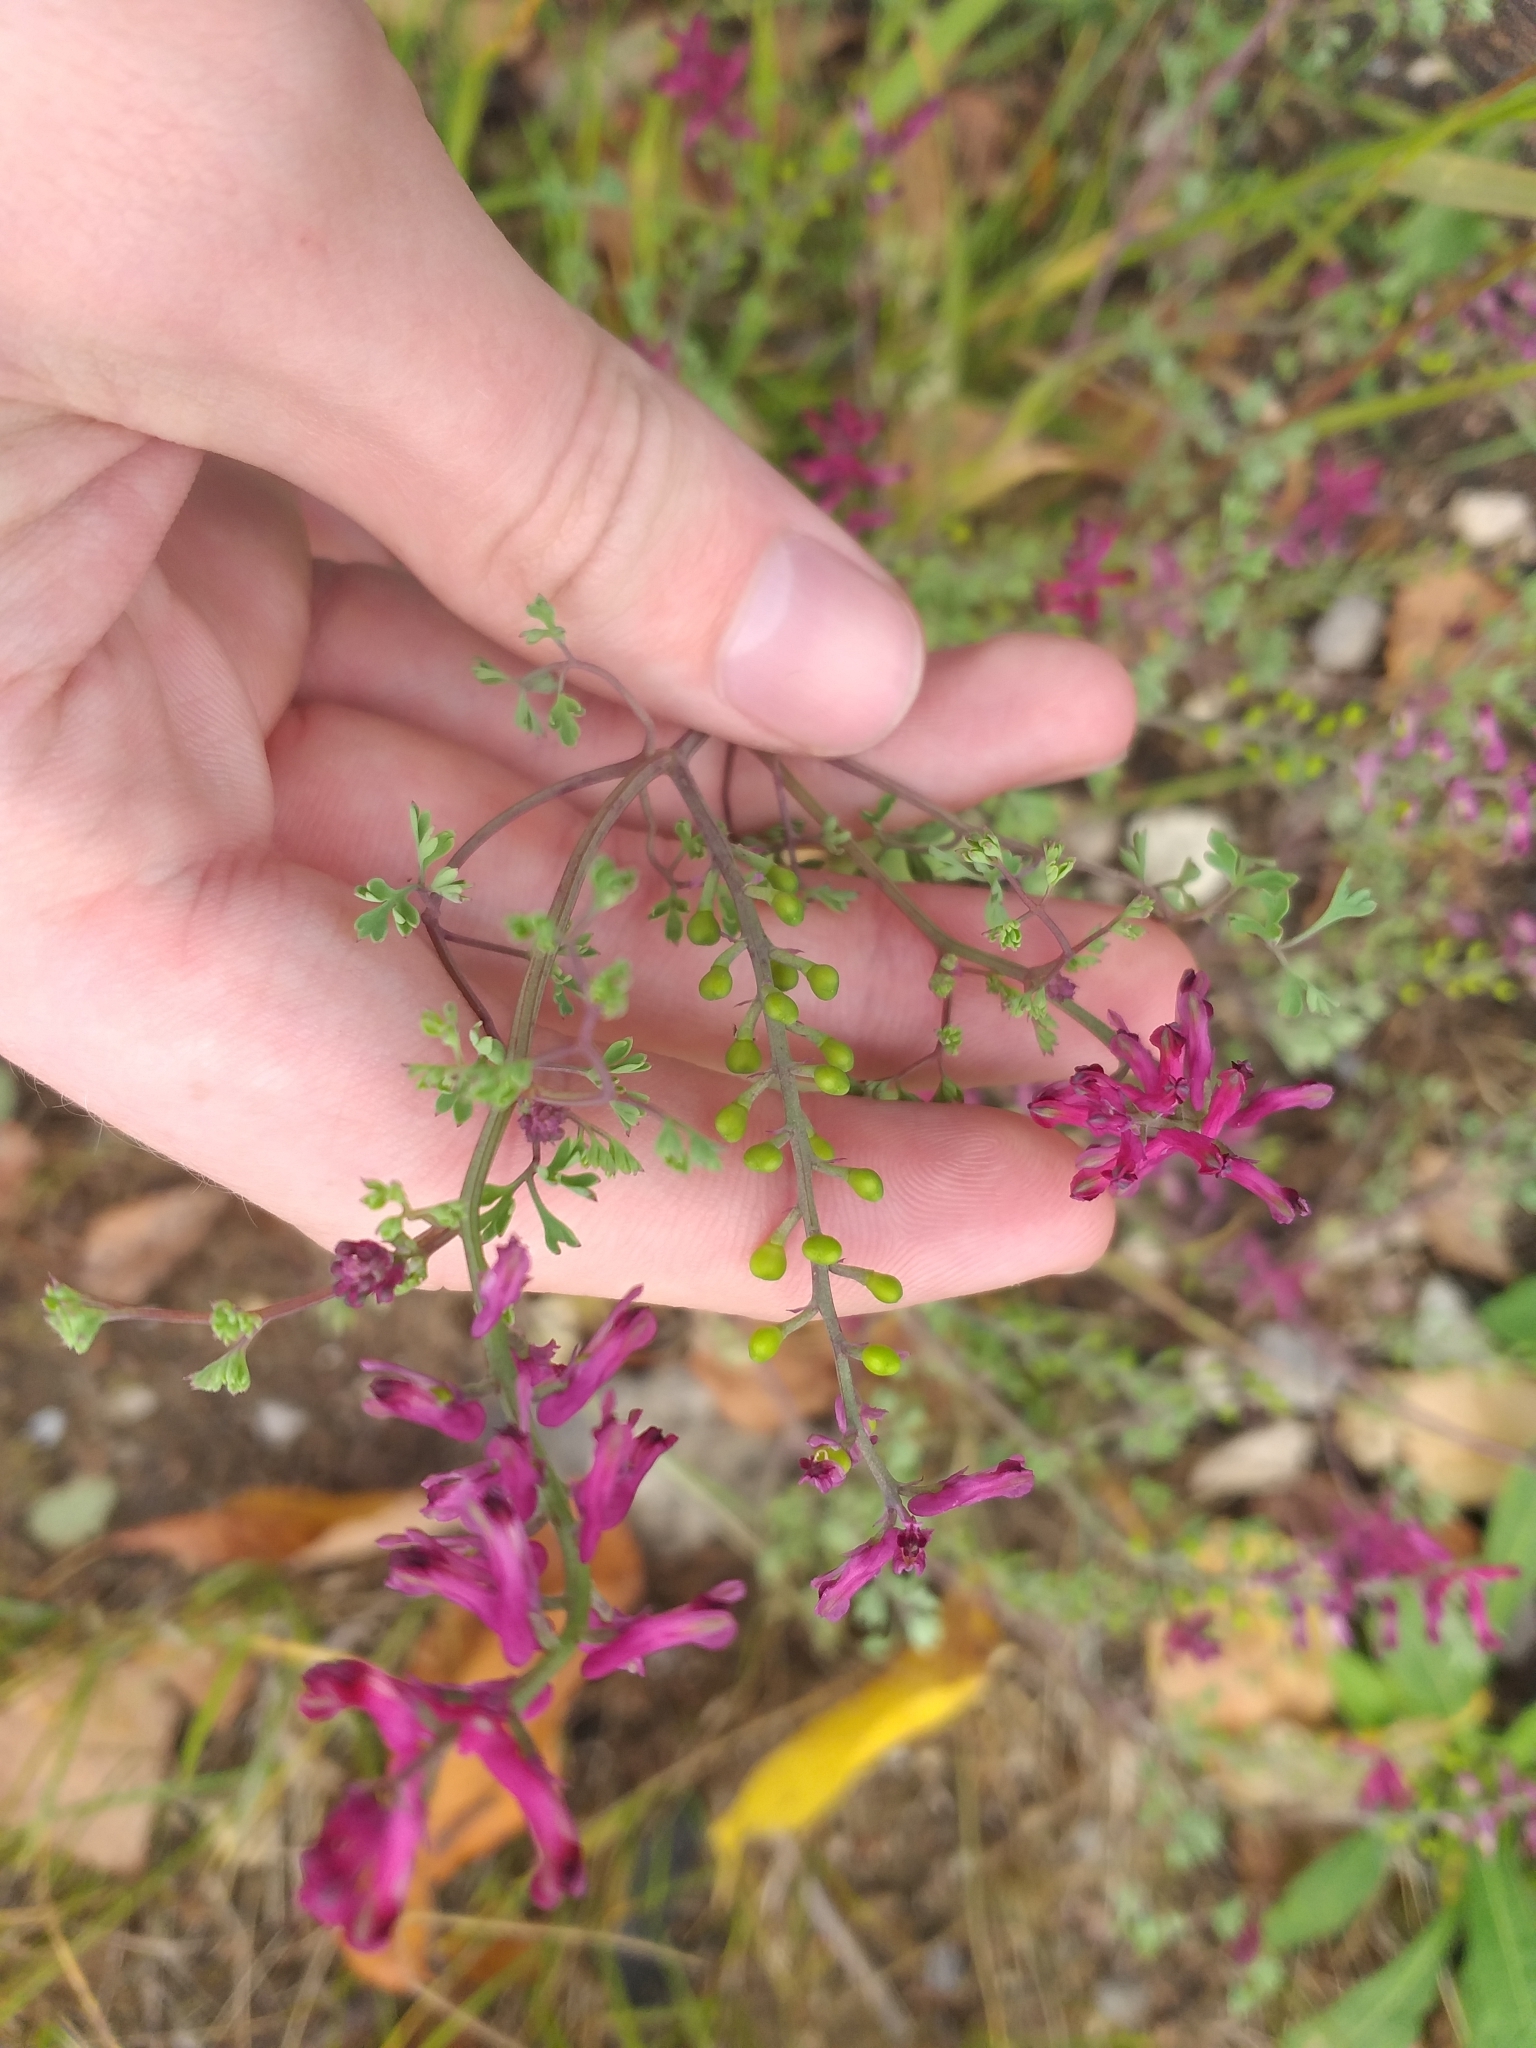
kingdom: Plantae
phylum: Tracheophyta
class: Magnoliopsida
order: Ranunculales
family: Papaveraceae
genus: Fumaria
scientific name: Fumaria officinalis
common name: Common fumitory
